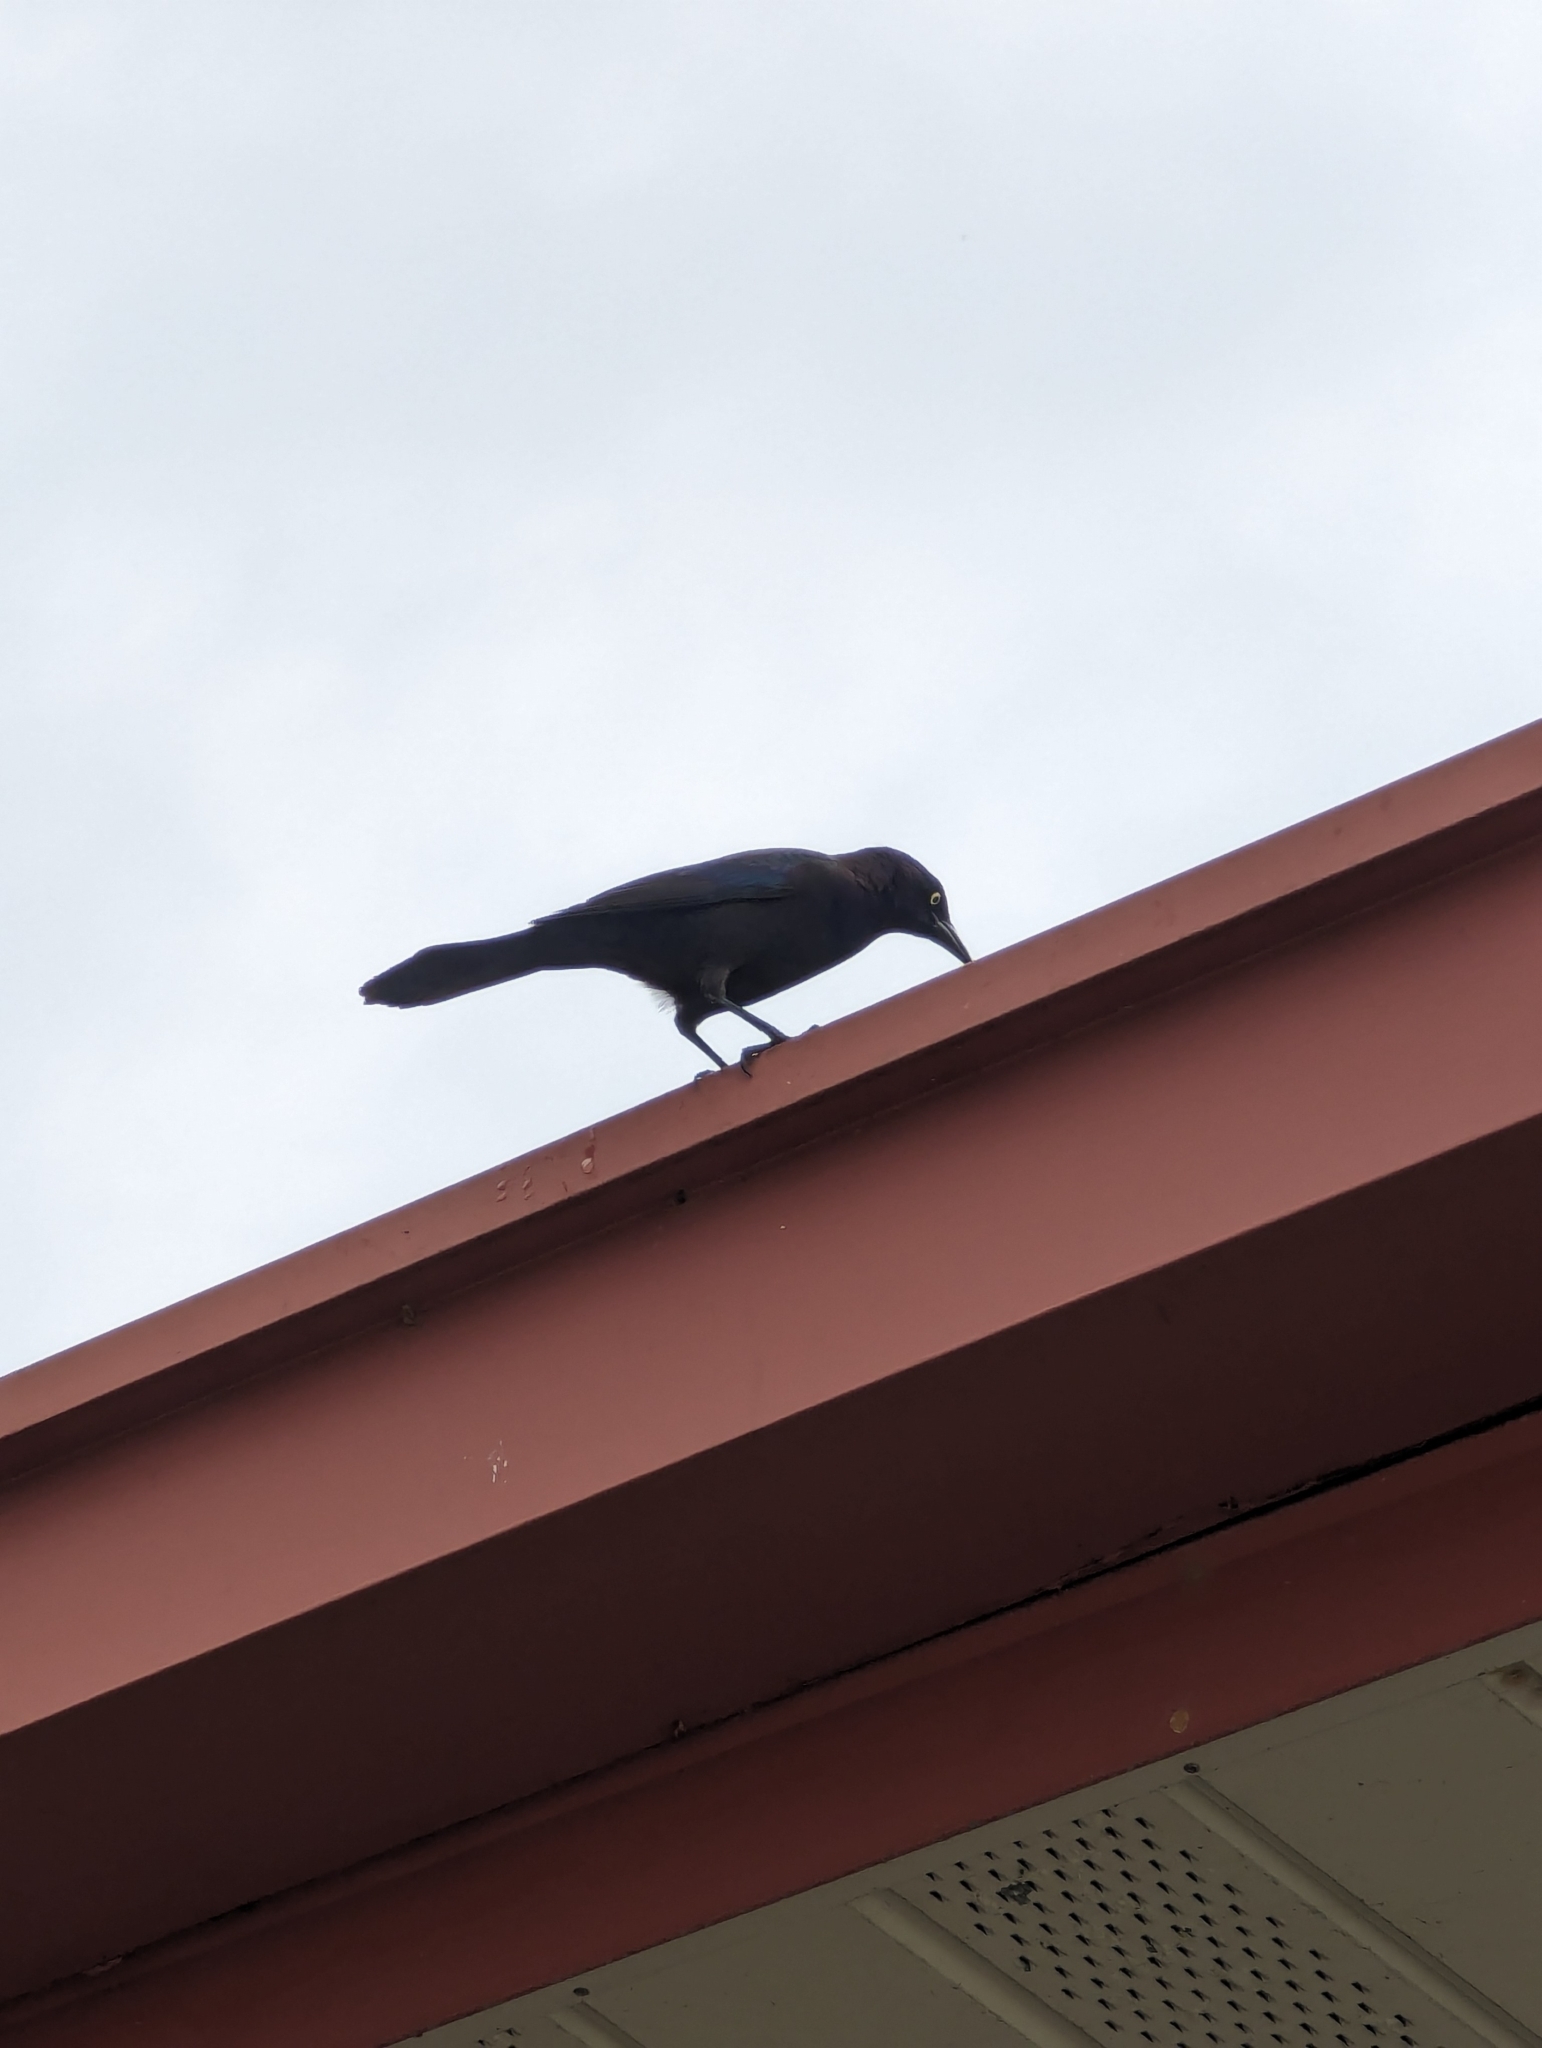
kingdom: Animalia
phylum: Chordata
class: Aves
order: Passeriformes
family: Icteridae
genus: Quiscalus
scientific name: Quiscalus quiscula
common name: Common grackle
